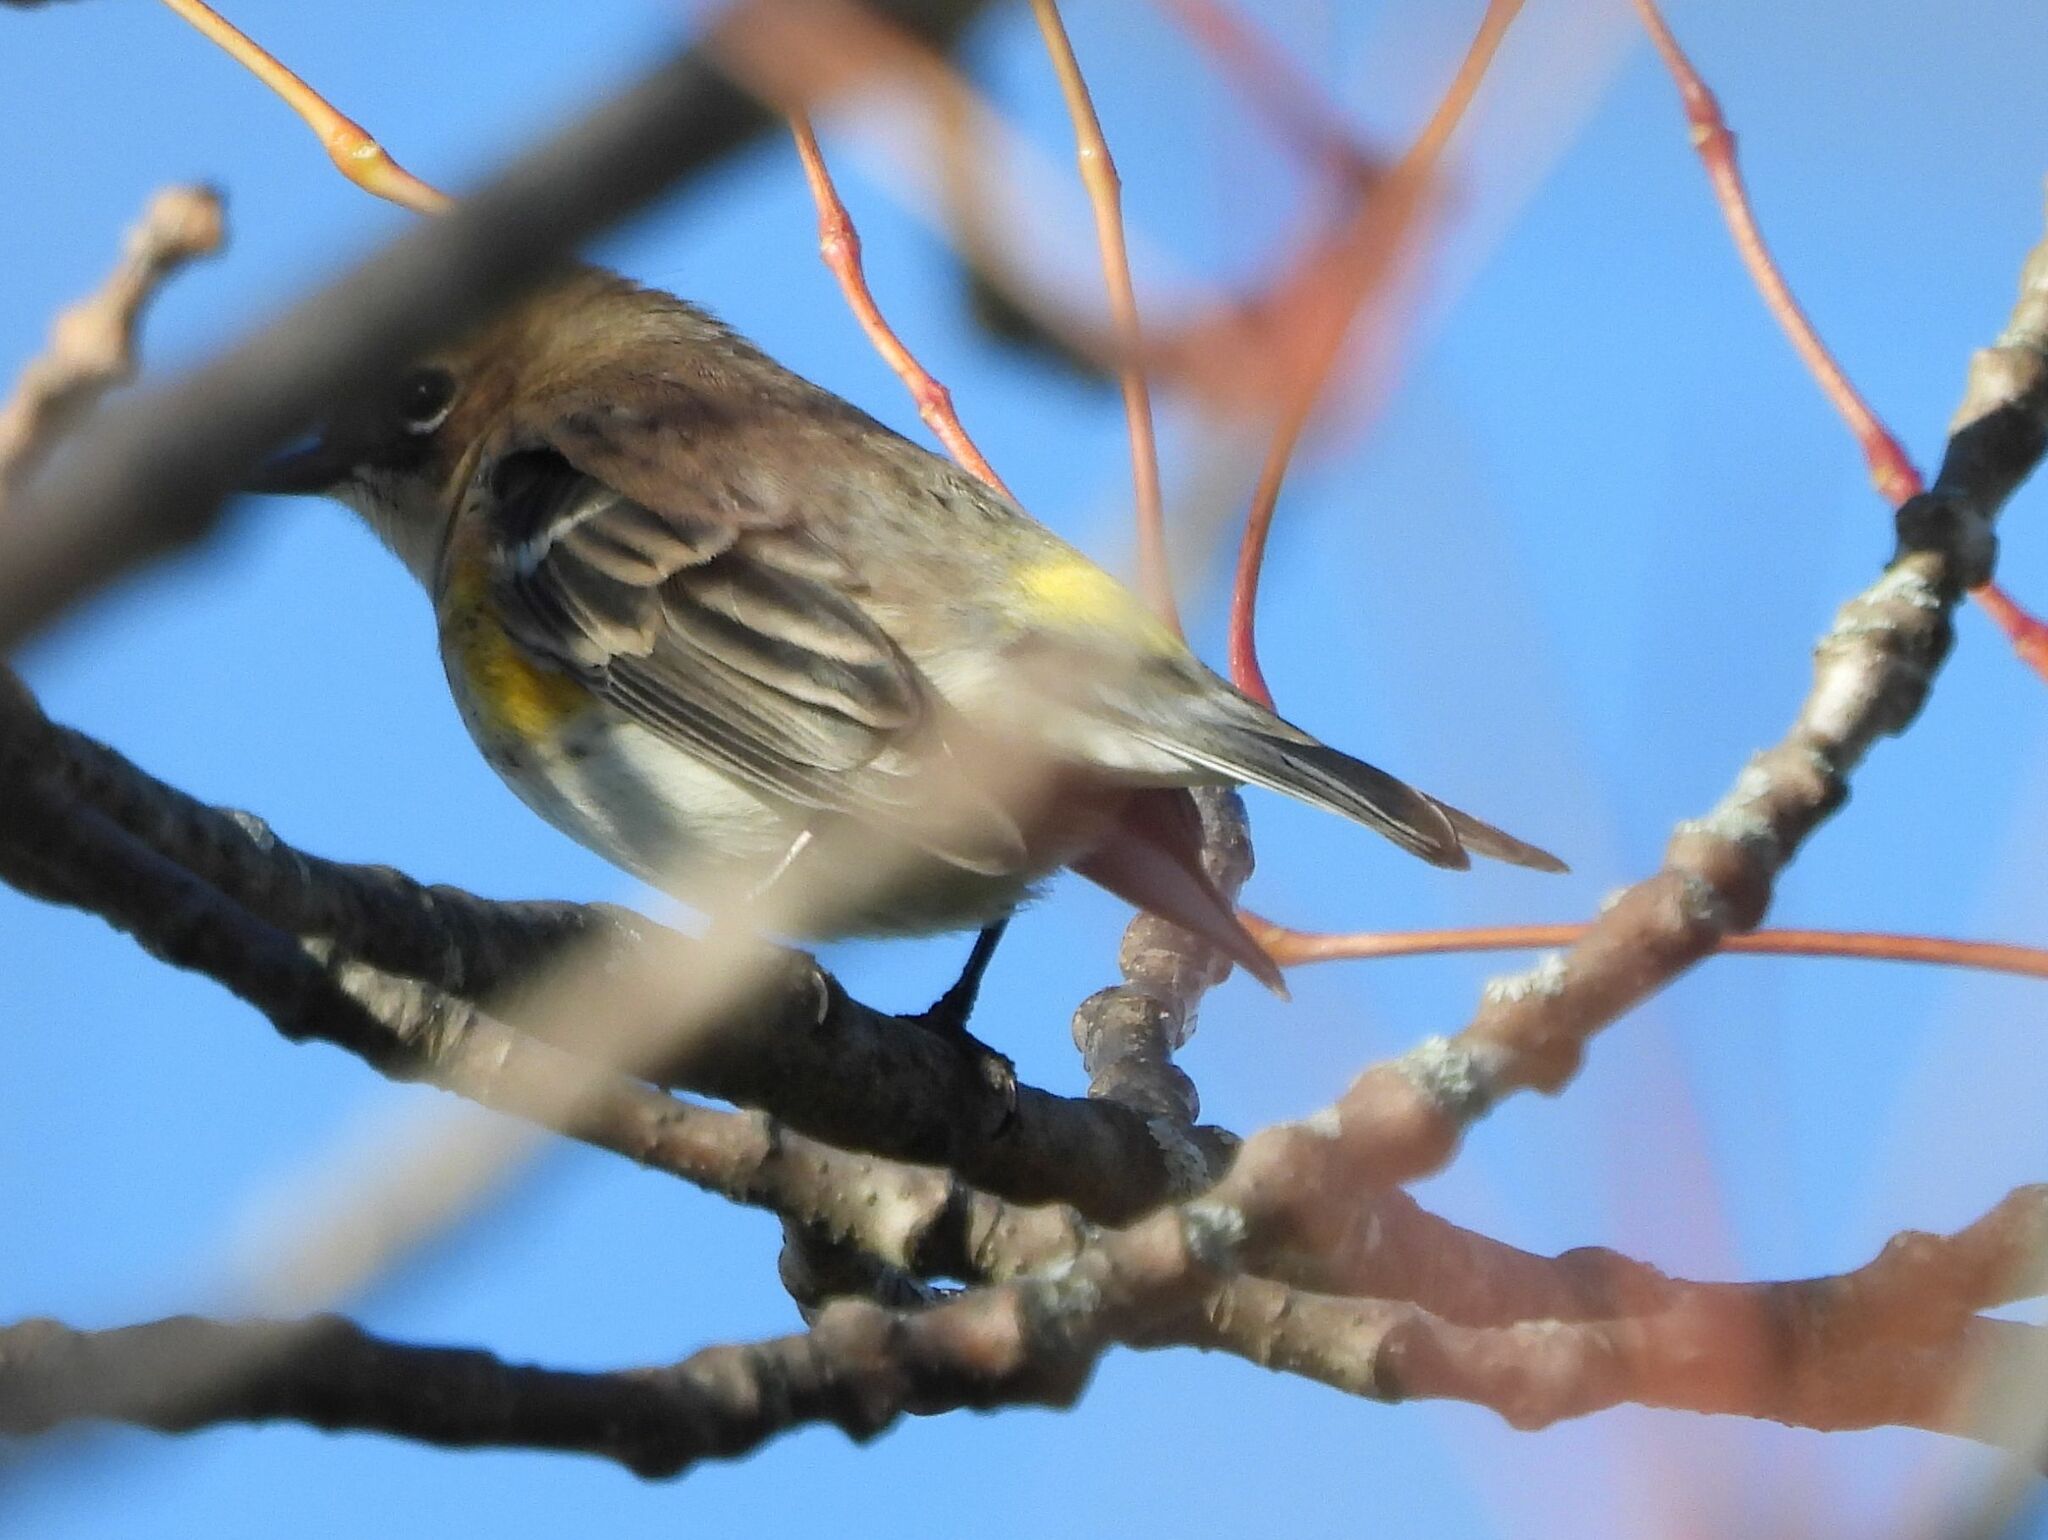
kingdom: Animalia
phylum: Chordata
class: Aves
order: Passeriformes
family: Parulidae
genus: Setophaga
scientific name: Setophaga coronata
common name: Myrtle warbler
